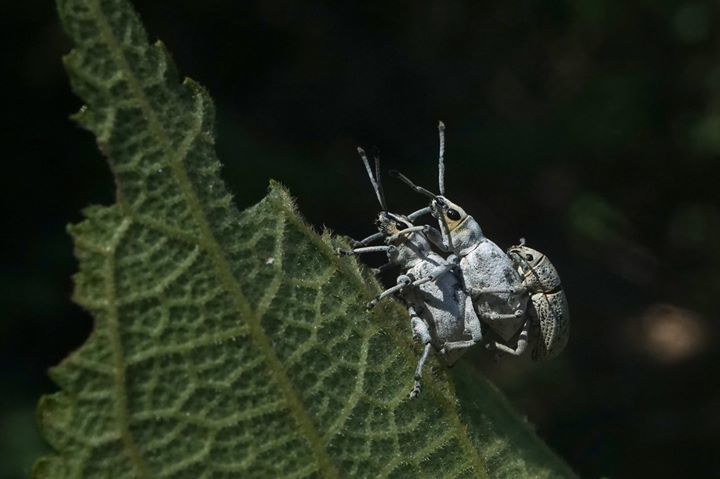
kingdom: Animalia
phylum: Arthropoda
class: Insecta
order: Coleoptera
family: Curculionidae
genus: Myllocerus
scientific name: Myllocerus undecimpustulatus
